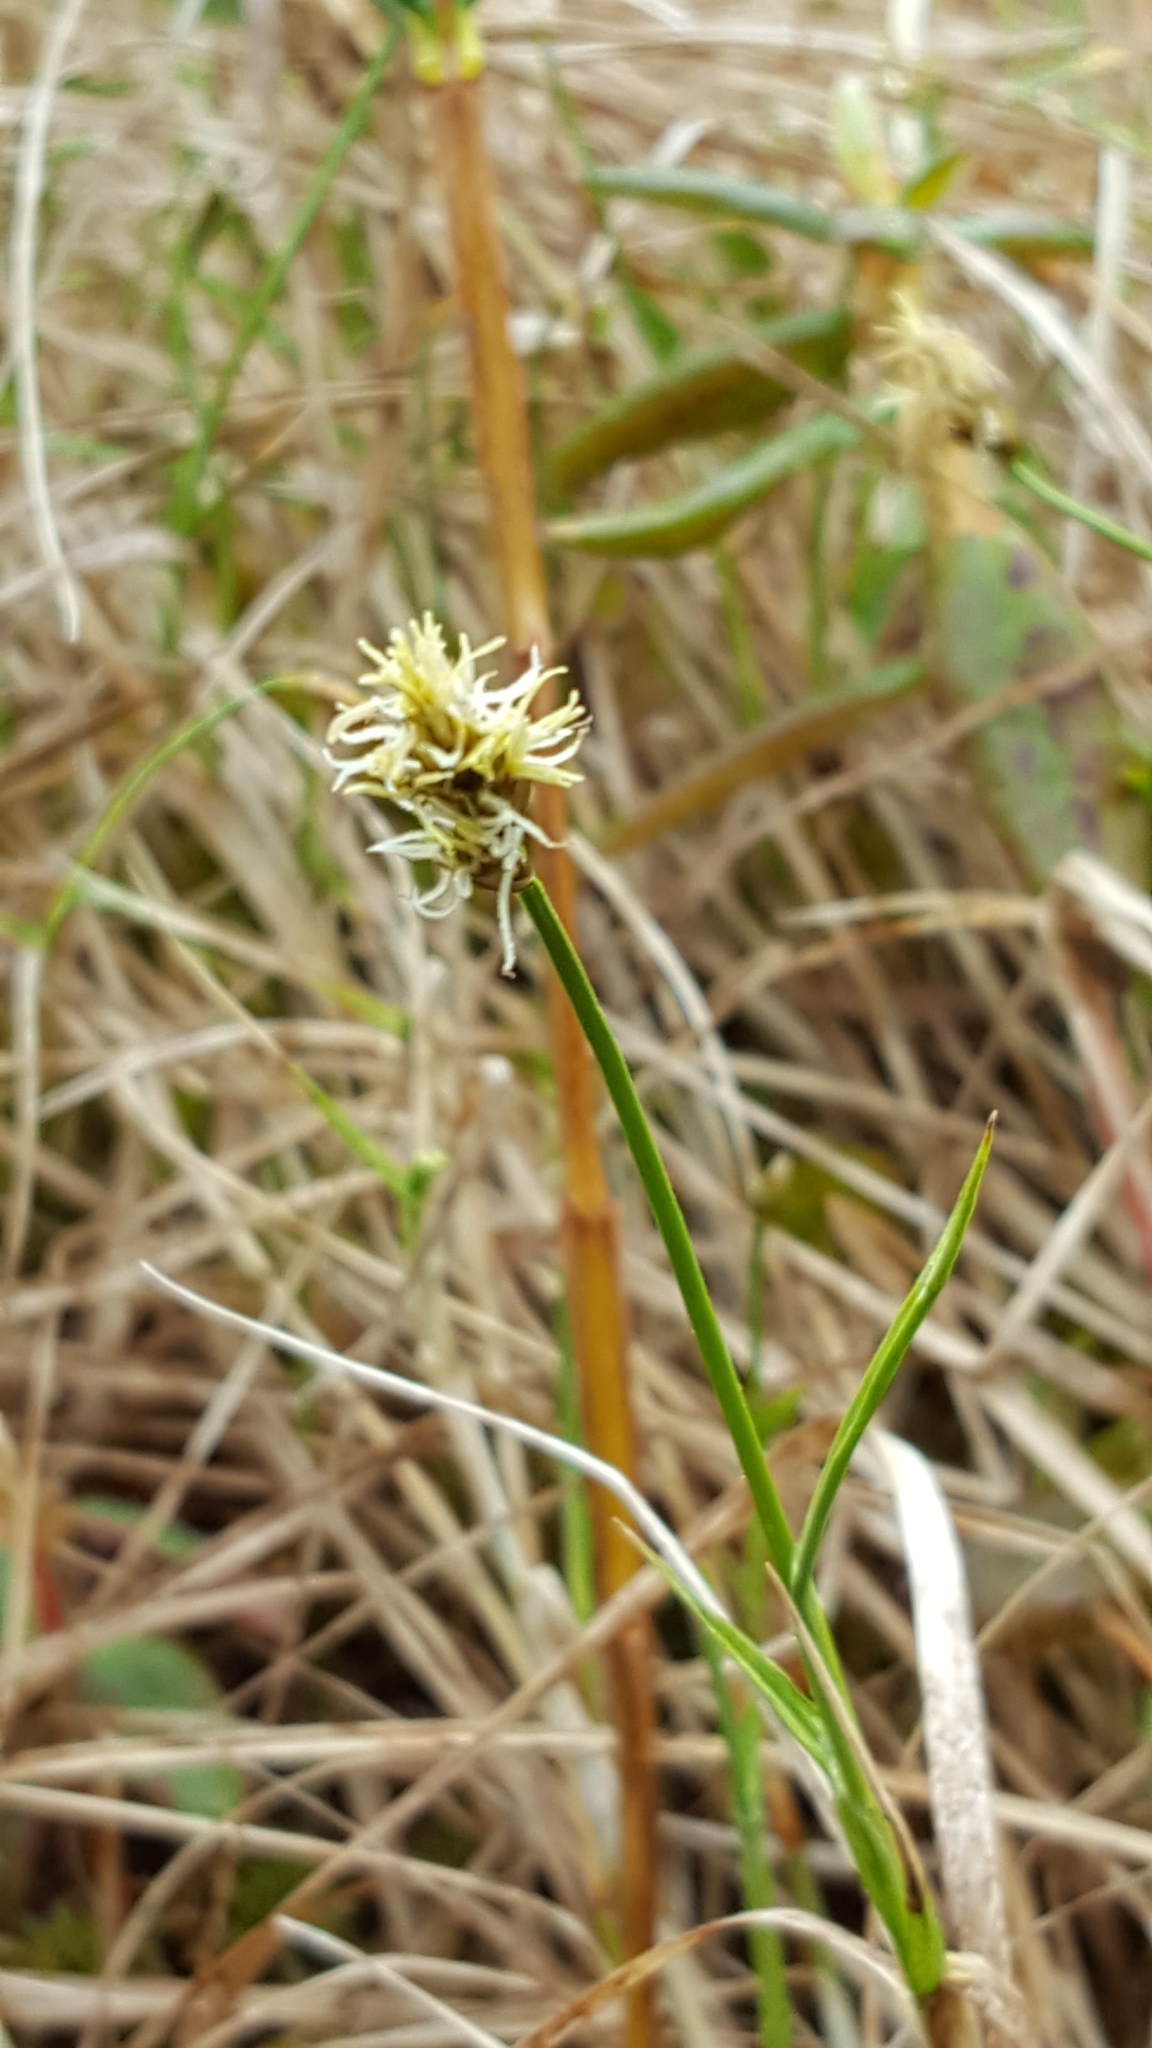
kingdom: Plantae
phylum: Tracheophyta
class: Liliopsida
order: Poales
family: Cyperaceae
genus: Carex
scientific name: Carex chordorrhiza
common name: String sedge
